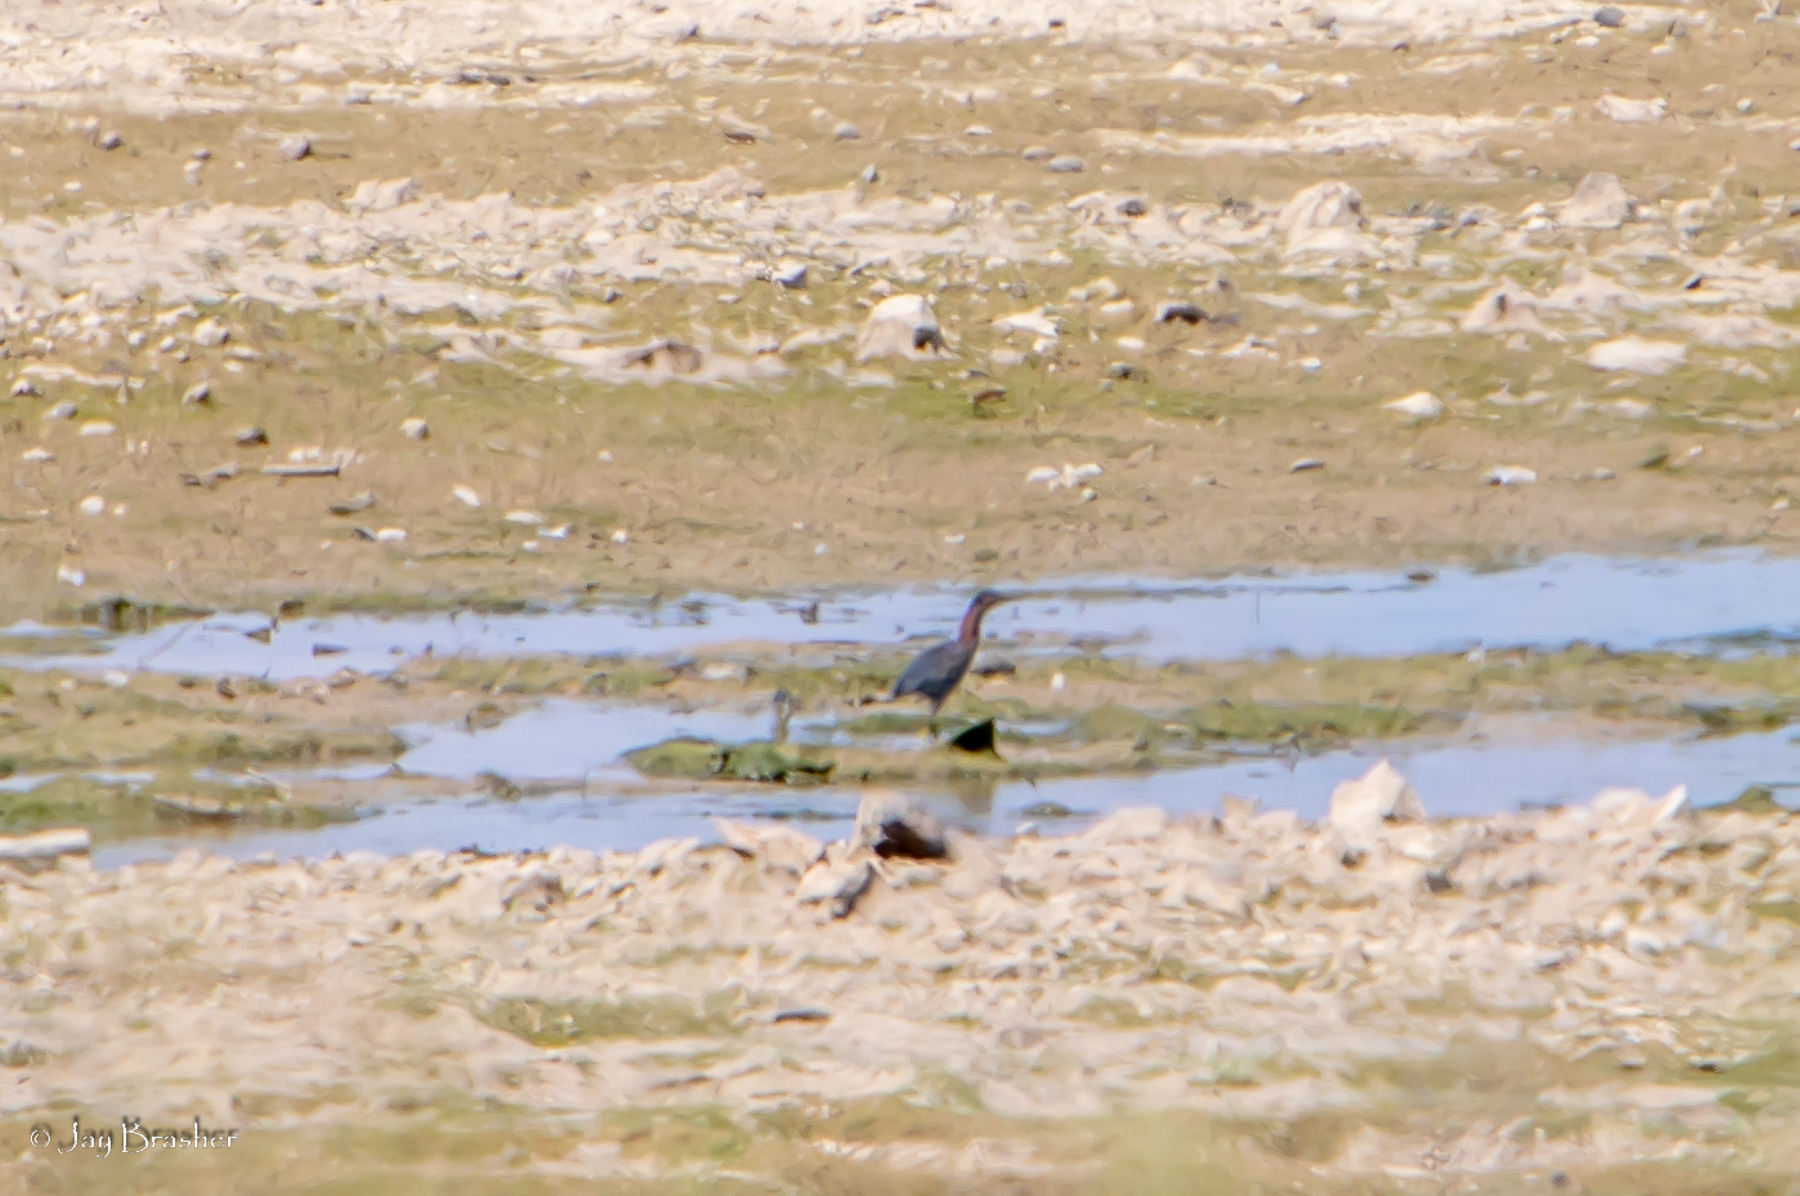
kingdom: Animalia
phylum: Chordata
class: Aves
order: Pelecaniformes
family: Ardeidae
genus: Butorides
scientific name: Butorides virescens
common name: Green heron
